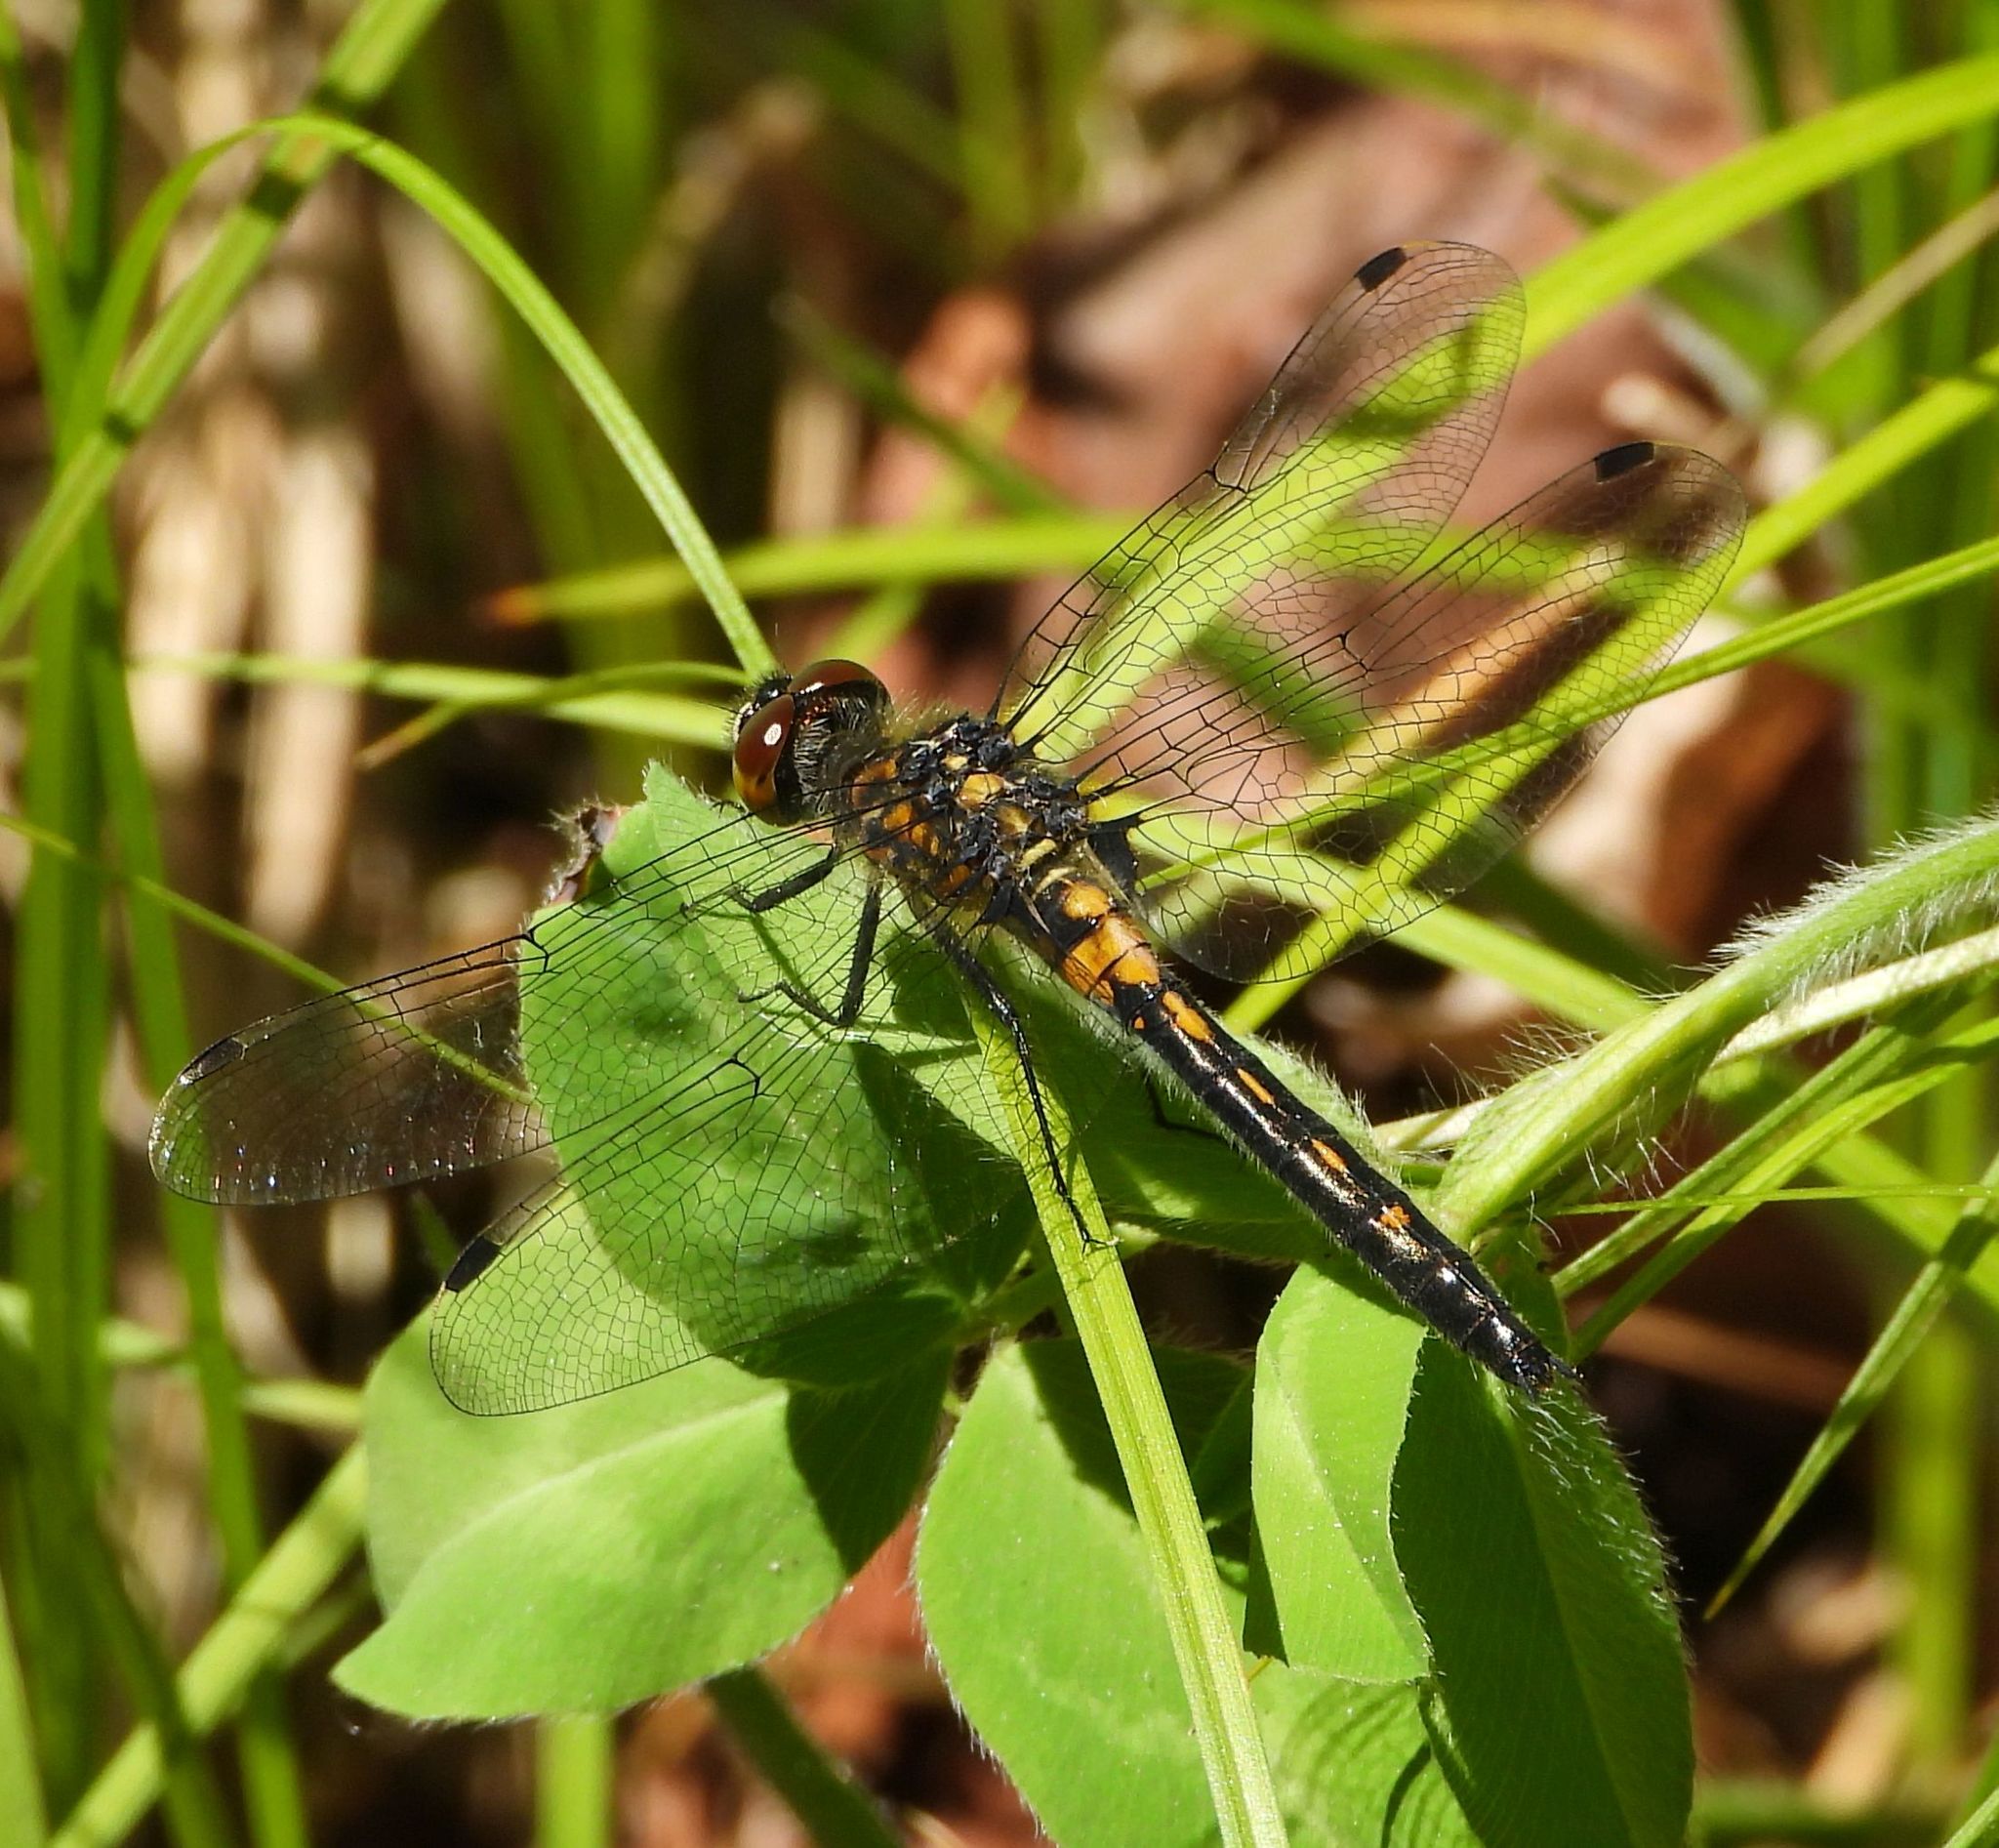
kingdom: Animalia
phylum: Arthropoda
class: Insecta
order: Odonata
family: Libellulidae
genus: Leucorrhinia
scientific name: Leucorrhinia intacta
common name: Dot-tailed whiteface
